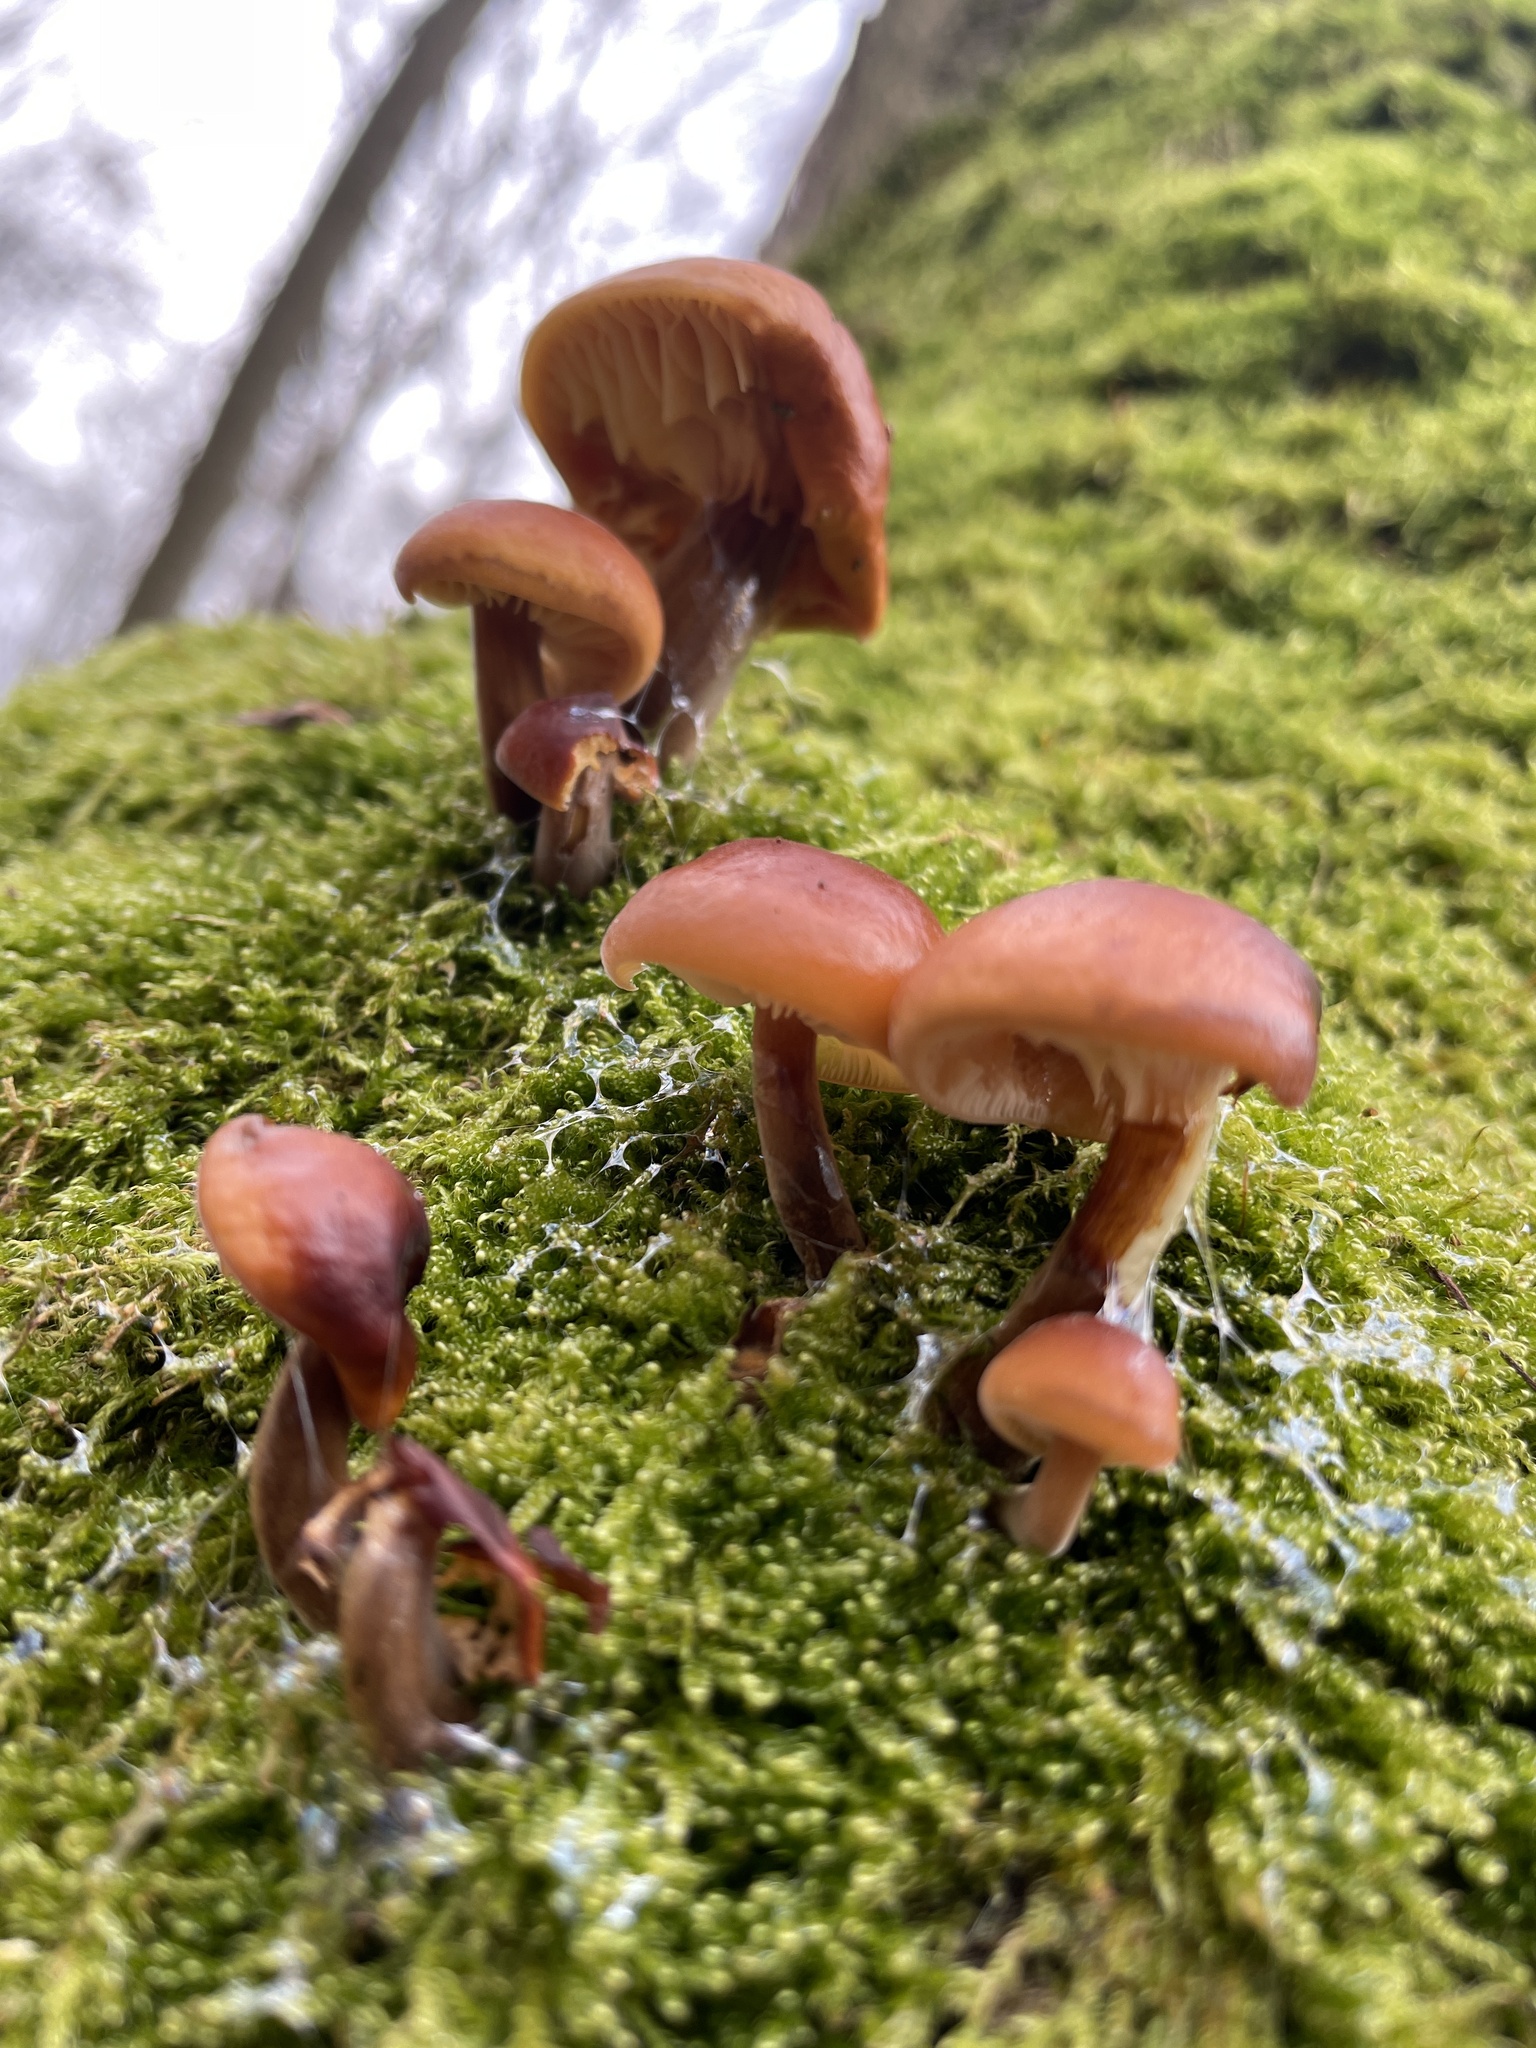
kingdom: Fungi
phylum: Basidiomycota
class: Agaricomycetes
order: Agaricales
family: Physalacriaceae
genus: Flammulina
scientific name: Flammulina
